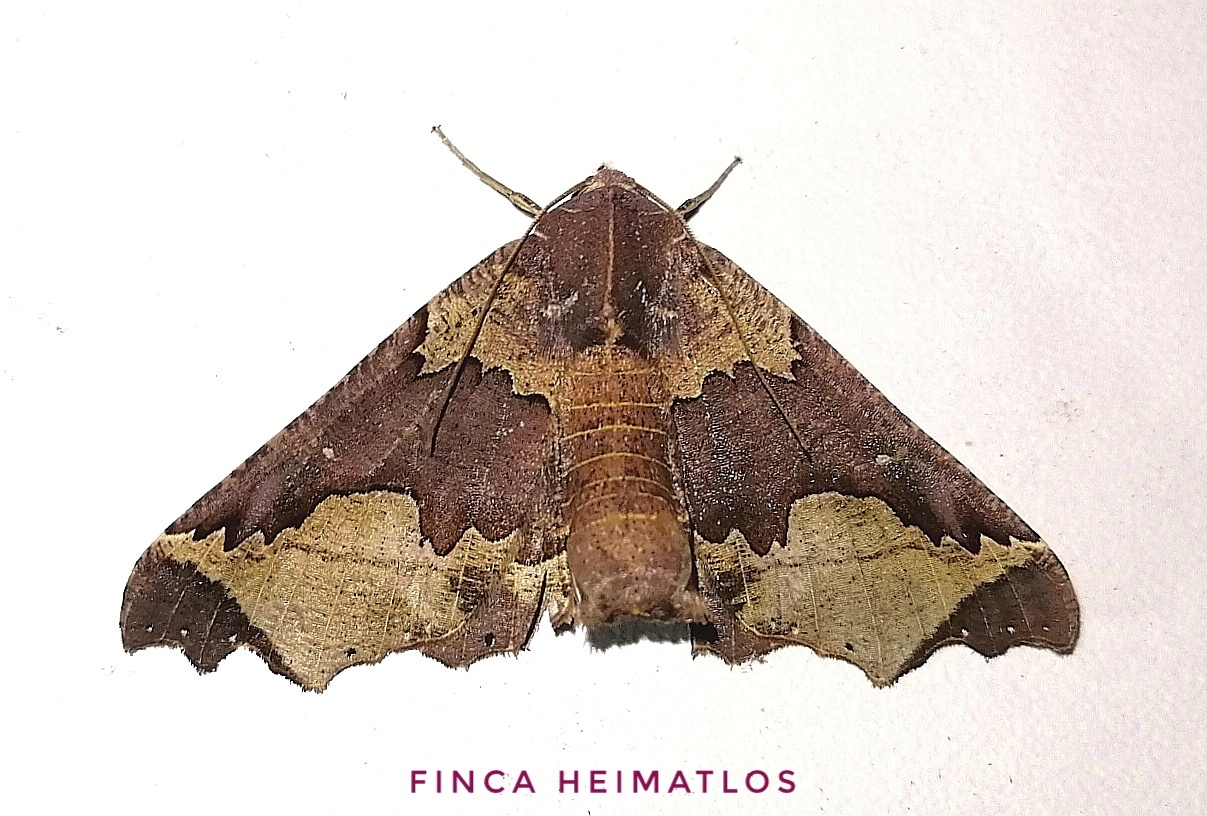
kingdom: Animalia
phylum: Arthropoda
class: Insecta
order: Lepidoptera
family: Geometridae
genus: Pero
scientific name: Pero chapela
